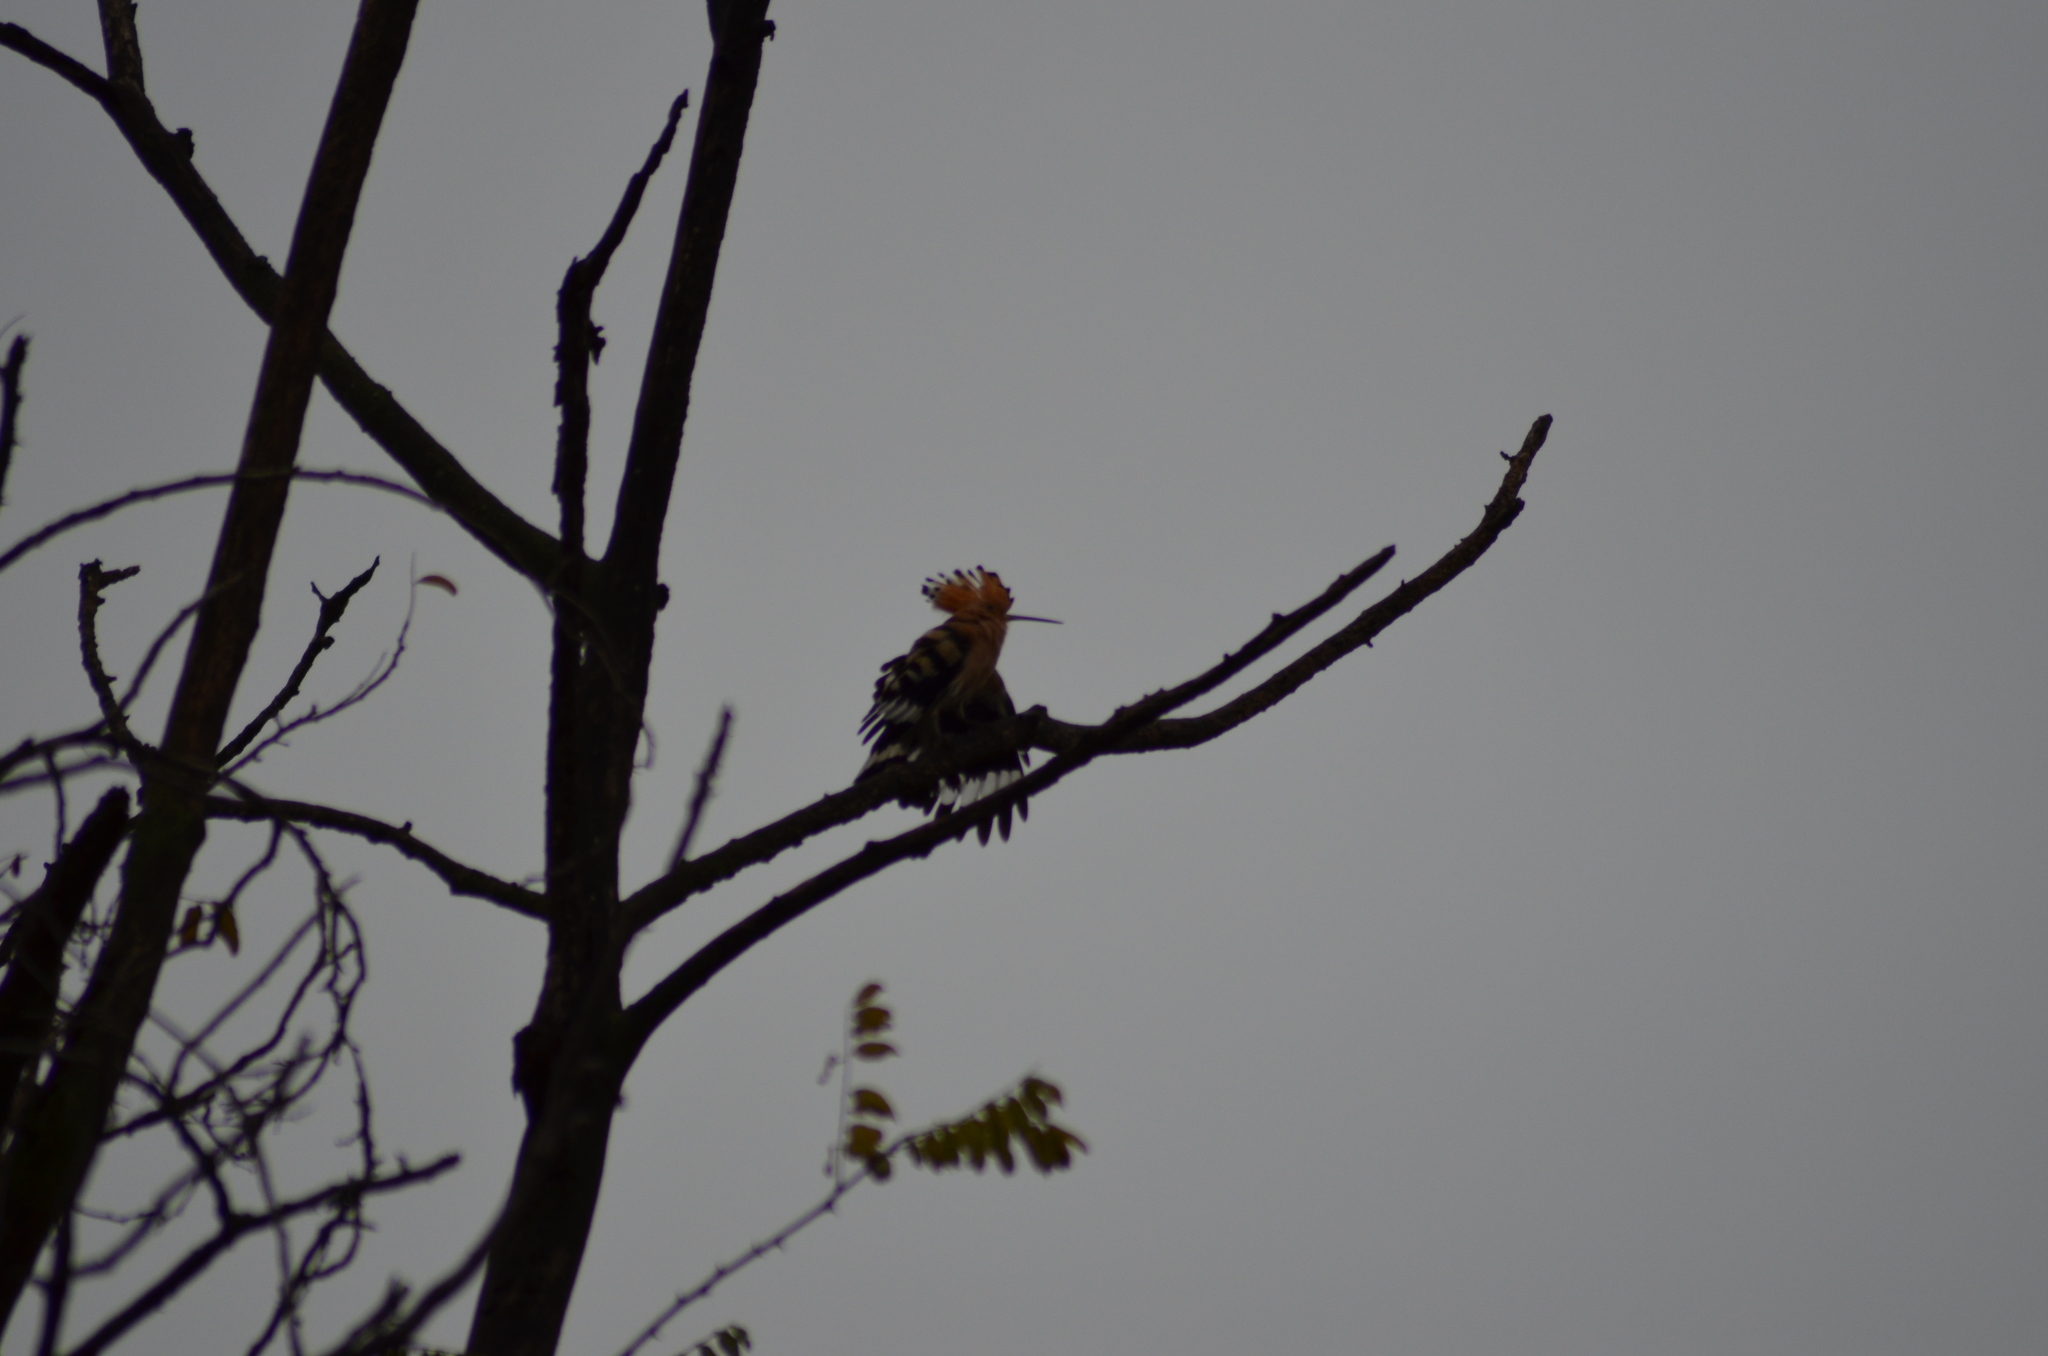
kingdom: Animalia
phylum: Chordata
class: Aves
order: Bucerotiformes
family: Upupidae
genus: Upupa
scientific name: Upupa epops
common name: Eurasian hoopoe
